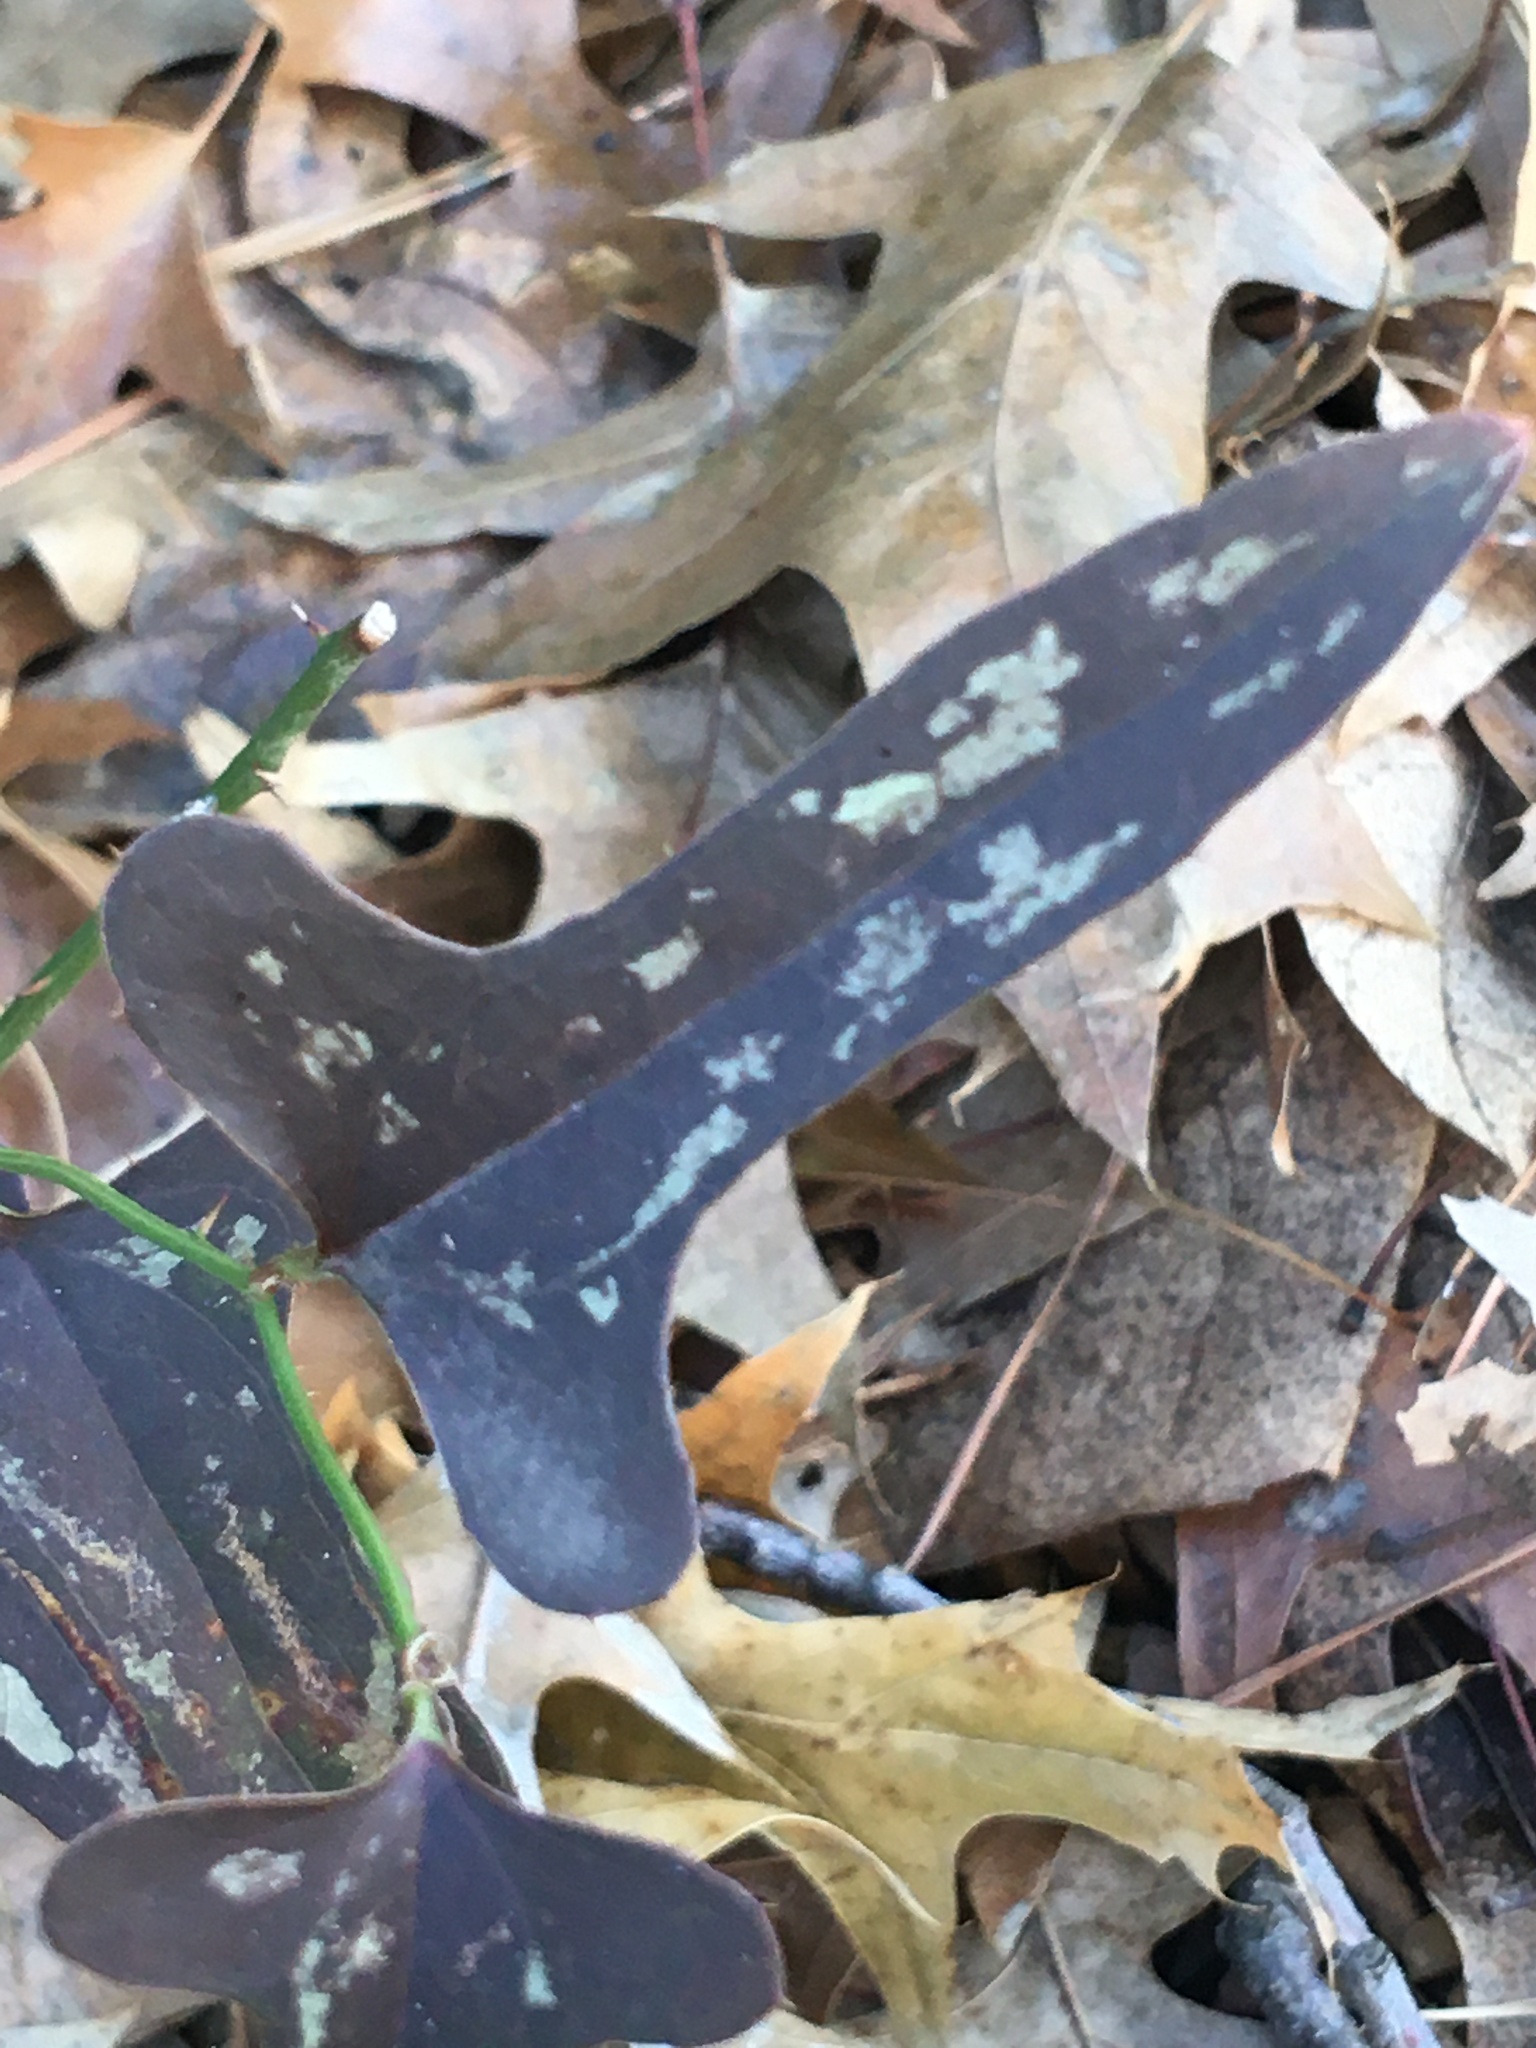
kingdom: Plantae
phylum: Tracheophyta
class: Liliopsida
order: Liliales
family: Smilacaceae
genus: Smilax
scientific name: Smilax bona-nox
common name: Catbrier
